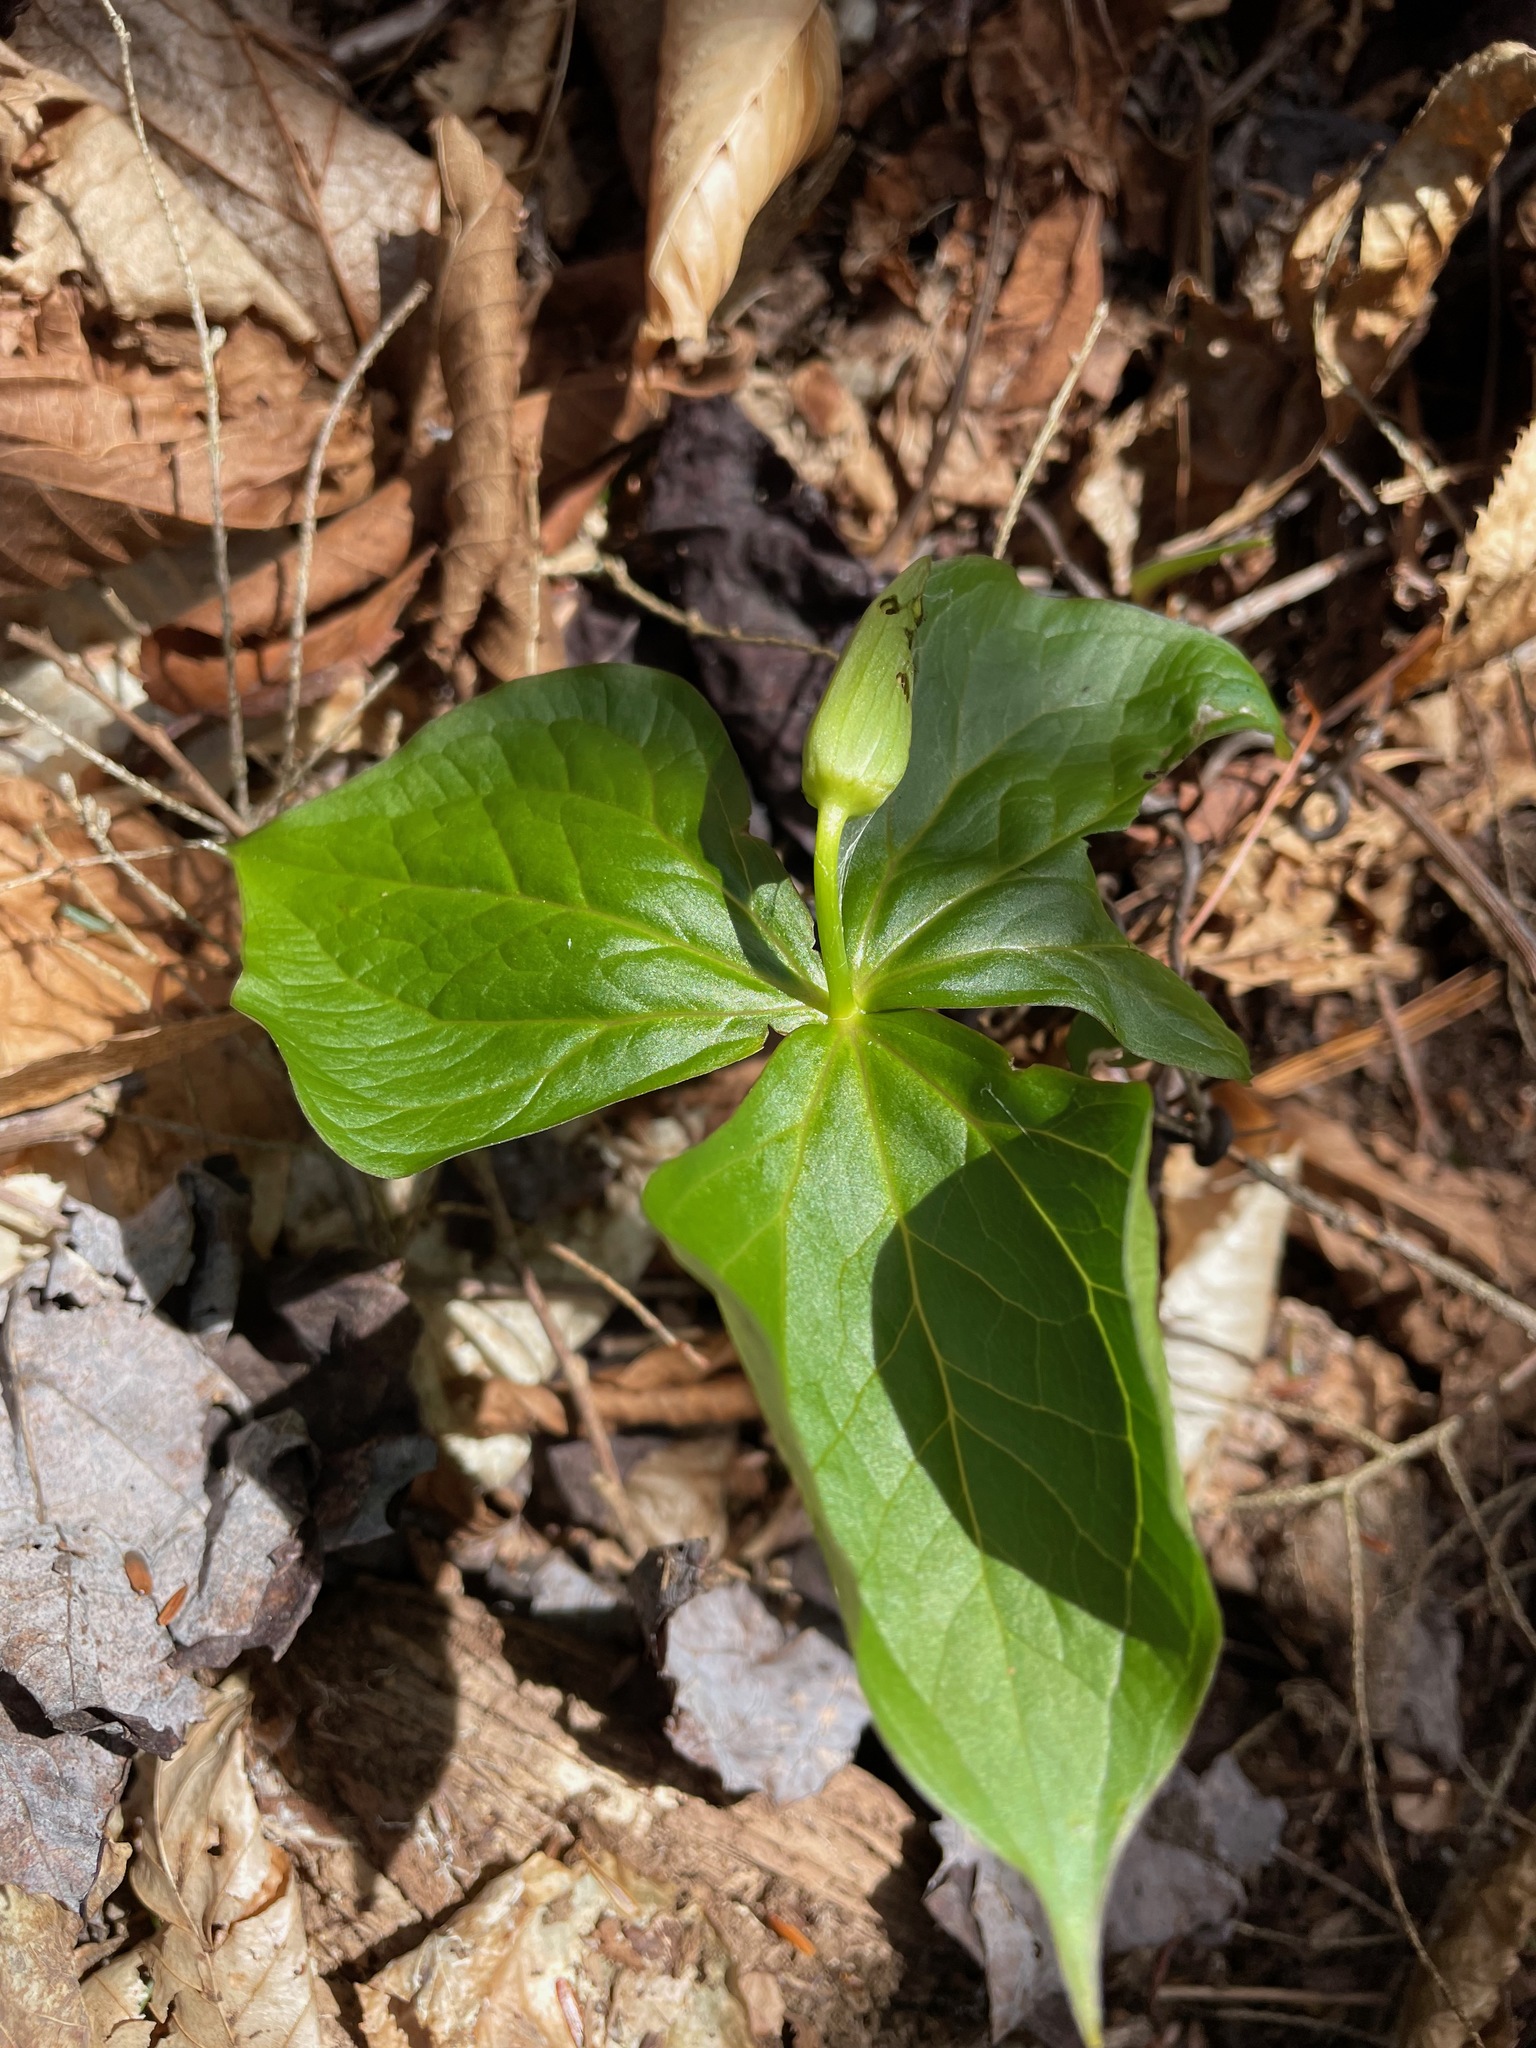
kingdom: Plantae
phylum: Tracheophyta
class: Liliopsida
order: Liliales
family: Melanthiaceae
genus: Trillium
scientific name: Trillium erectum
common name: Purple trillium
